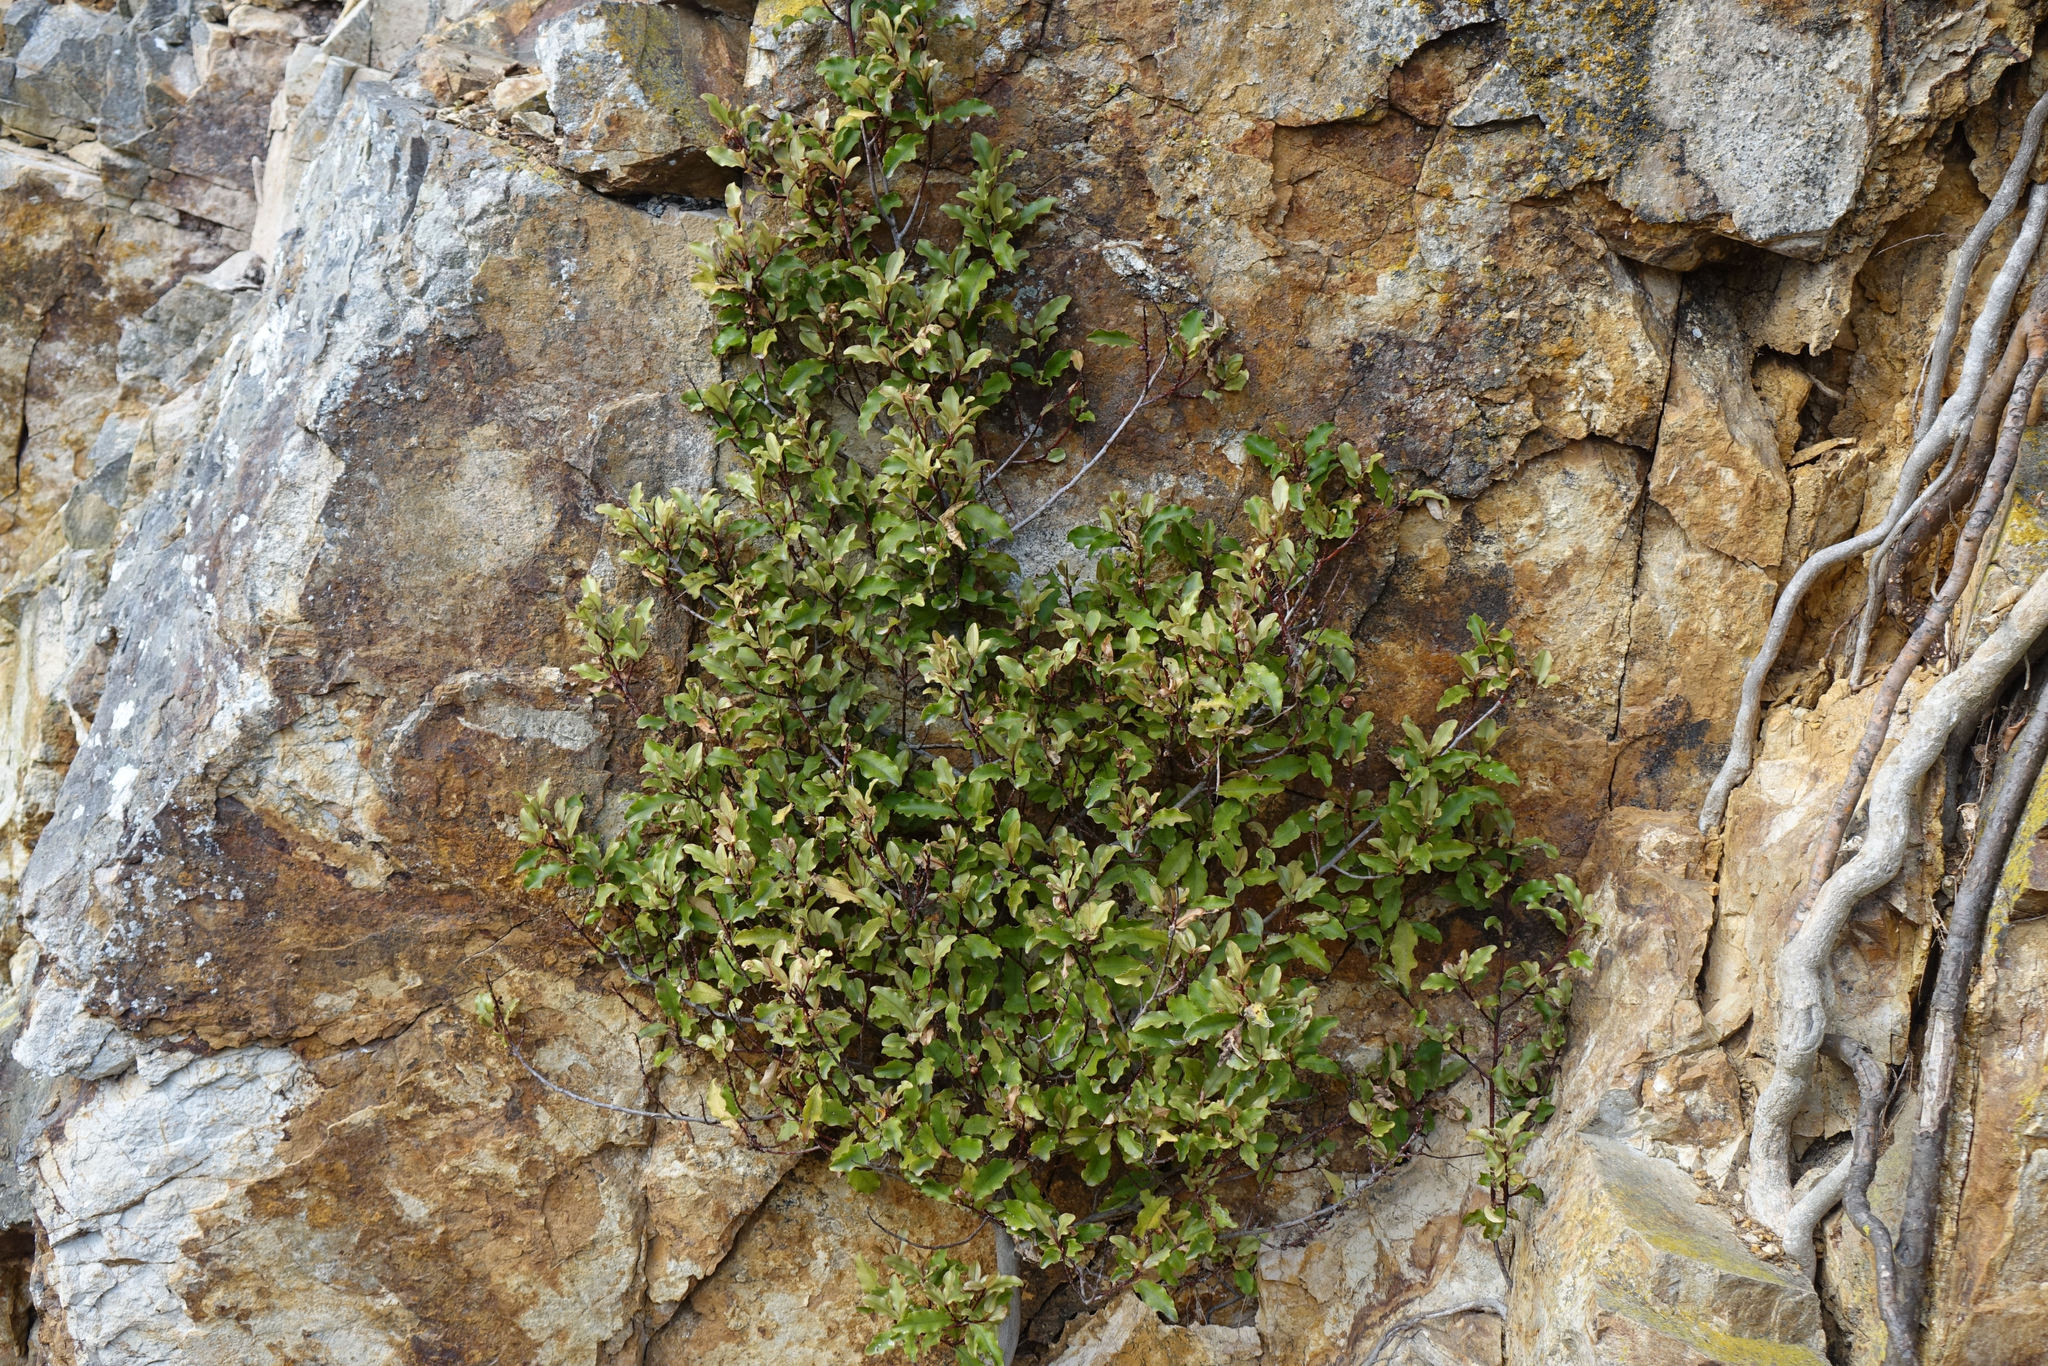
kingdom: Plantae
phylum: Tracheophyta
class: Magnoliopsida
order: Ericales
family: Primulaceae
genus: Myrsine
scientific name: Myrsine australis
